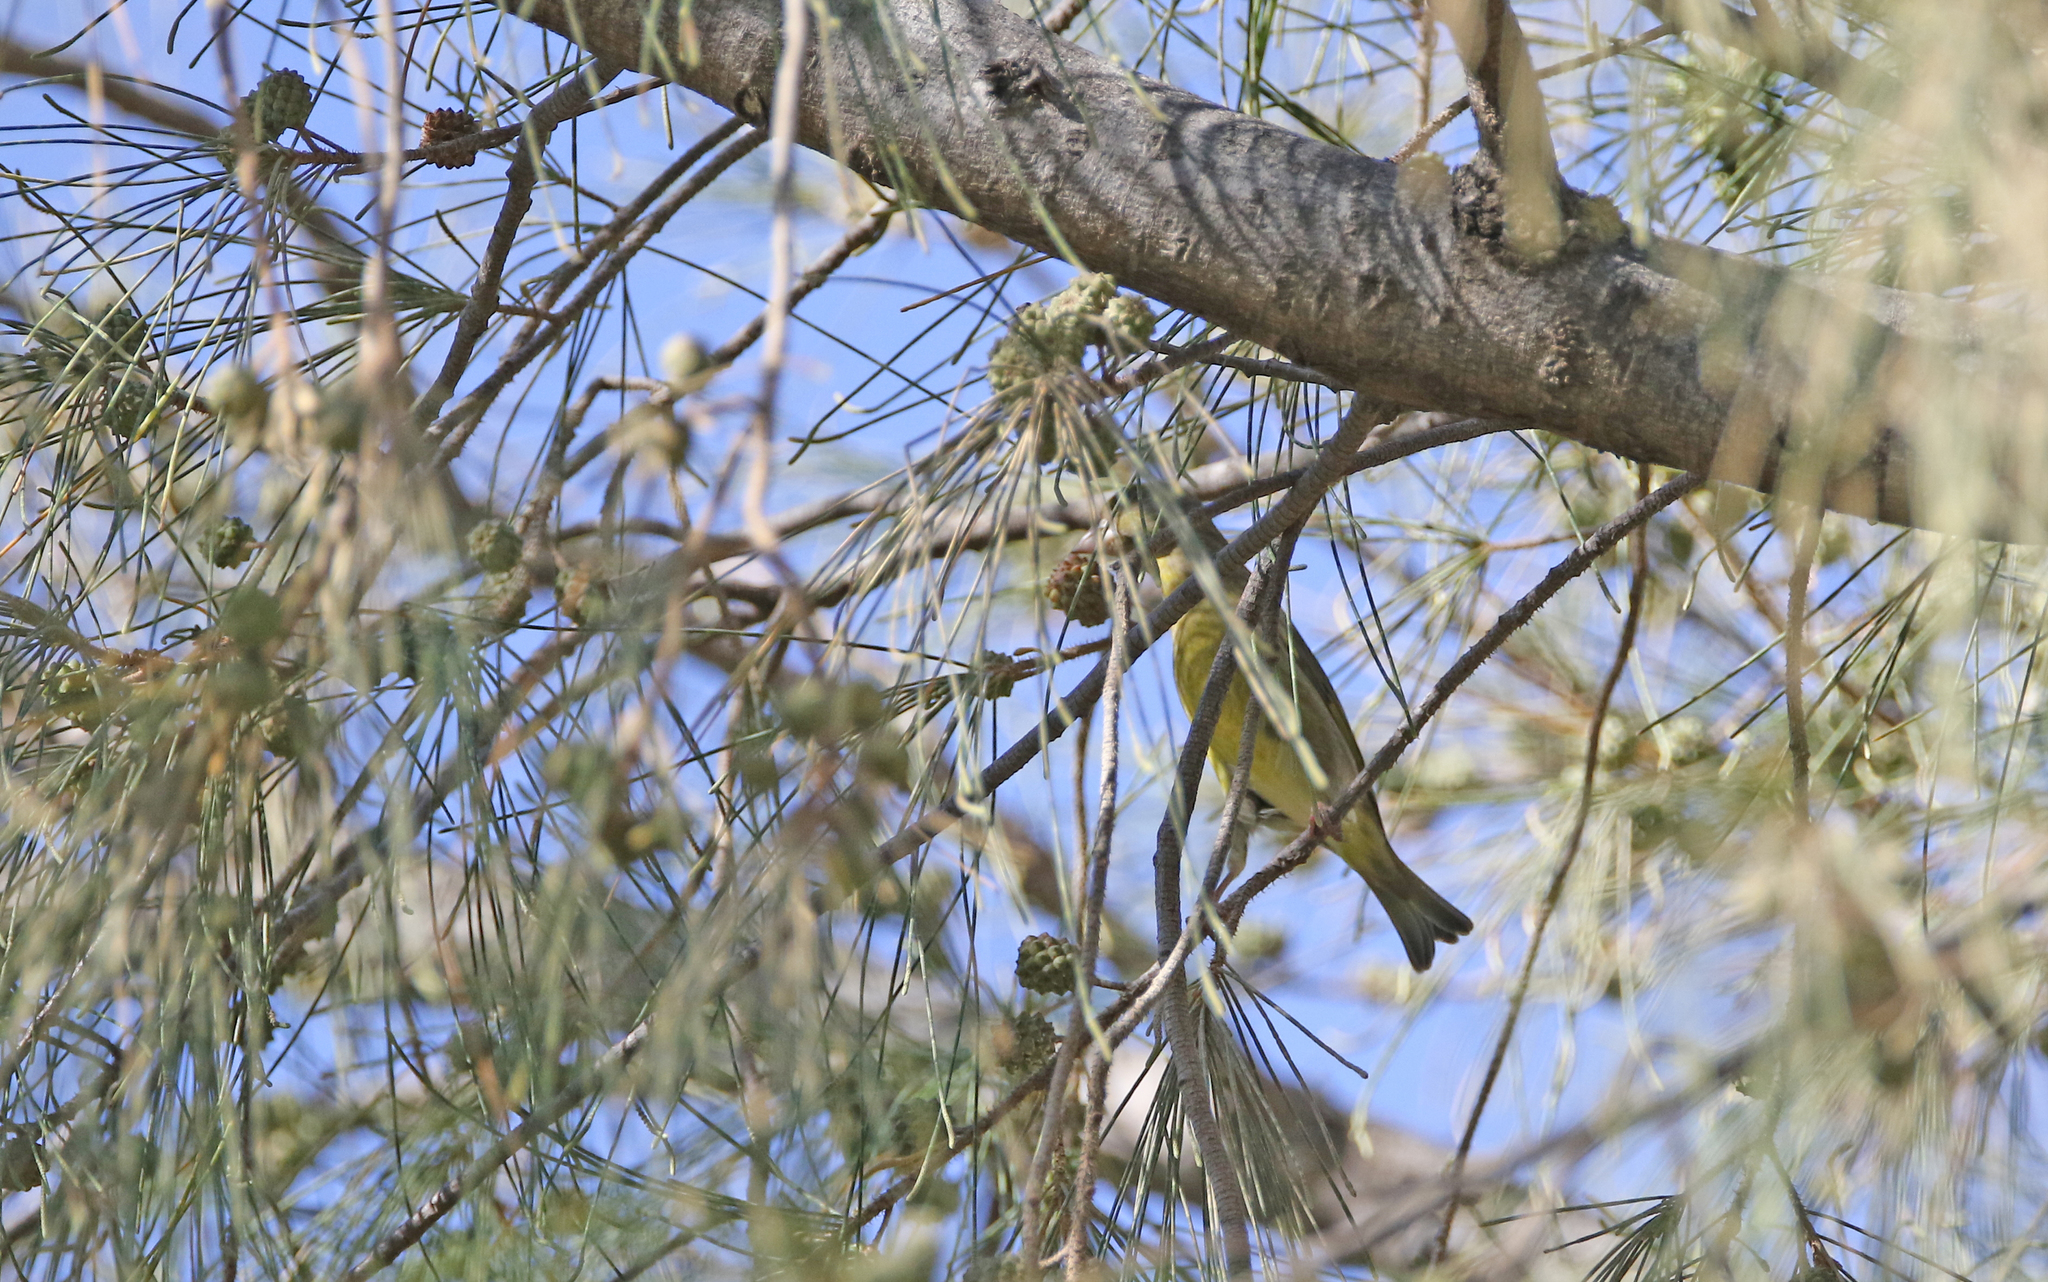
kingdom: Plantae
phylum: Tracheophyta
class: Liliopsida
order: Poales
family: Poaceae
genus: Chloris
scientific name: Chloris chloris
